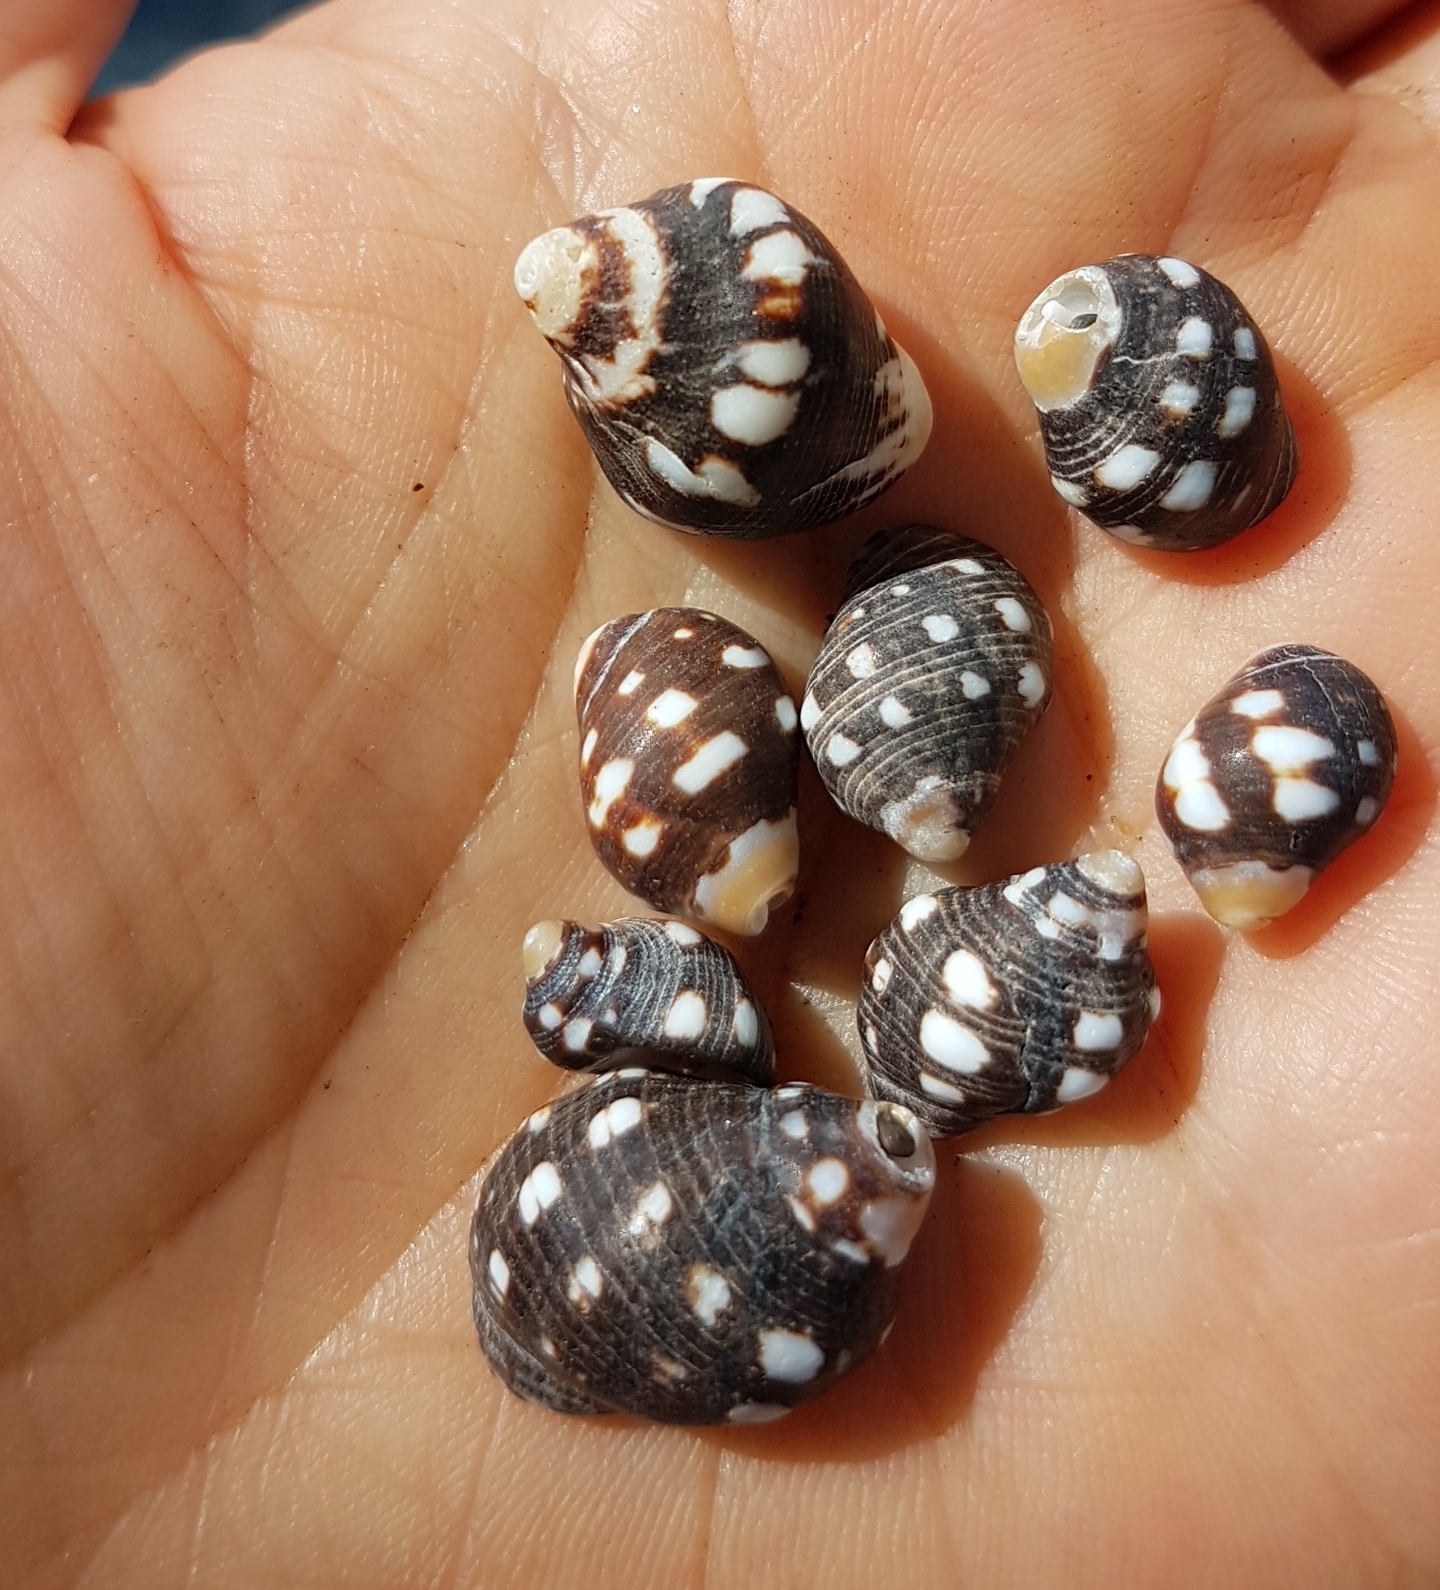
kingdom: Animalia
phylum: Mollusca
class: Gastropoda
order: Neogastropoda
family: Muricidae
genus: Acanthais
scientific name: Acanthais brevidentata
